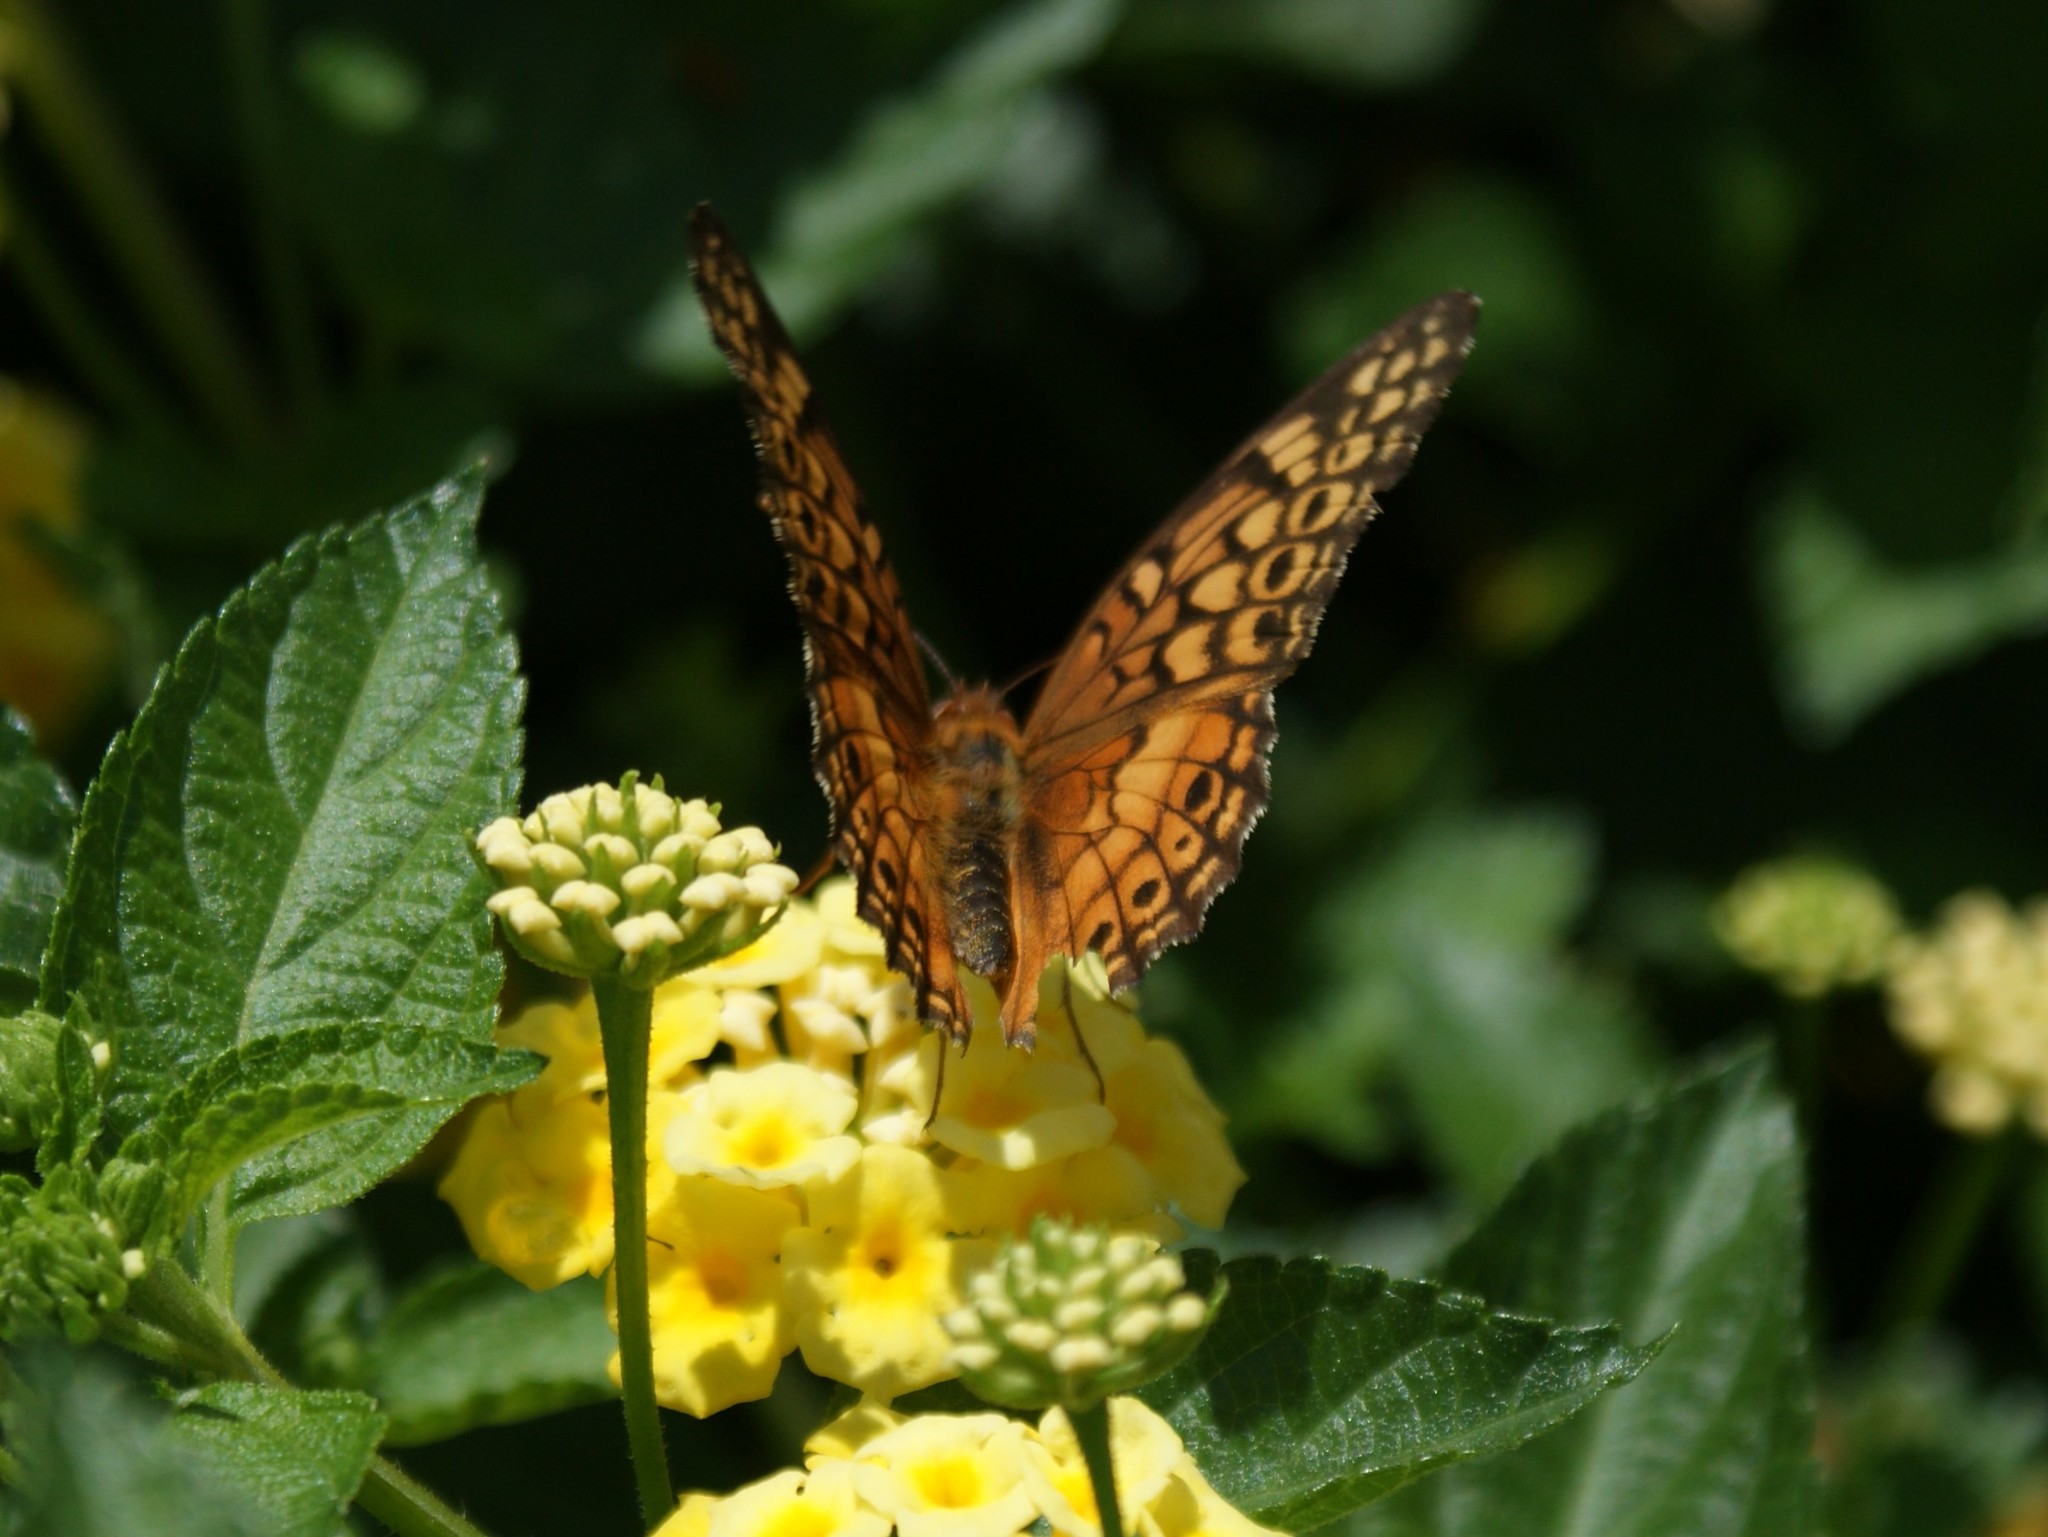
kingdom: Animalia
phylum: Arthropoda
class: Insecta
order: Lepidoptera
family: Nymphalidae
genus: Euptoieta
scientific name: Euptoieta claudia
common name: Variegated fritillary
